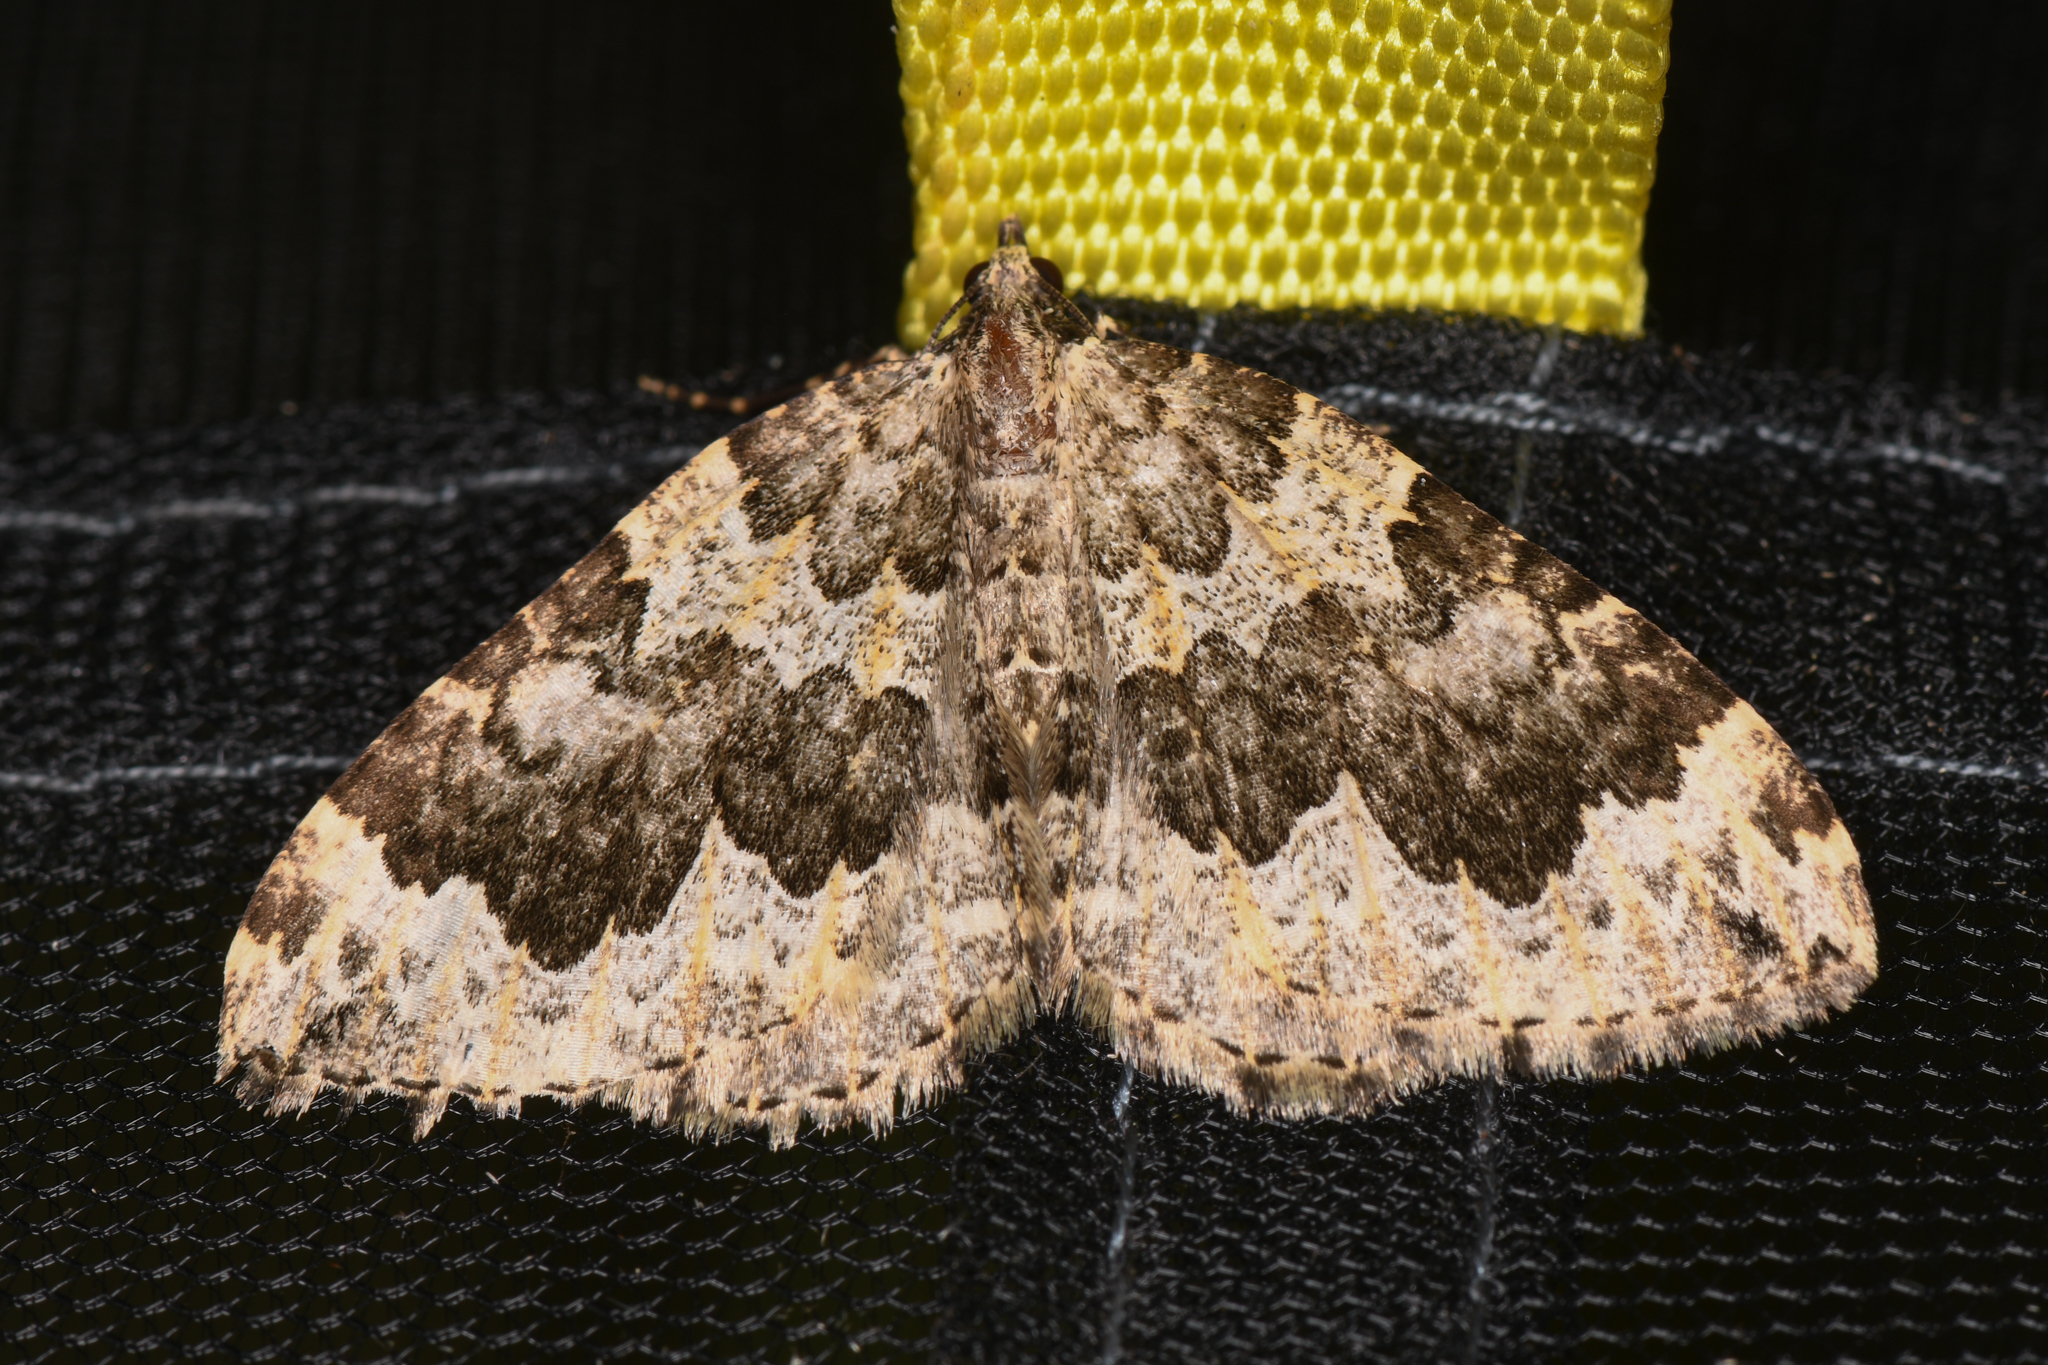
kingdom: Animalia
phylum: Arthropoda
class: Insecta
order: Lepidoptera
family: Geometridae
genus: Eustroma
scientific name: Eustroma semiatrata
